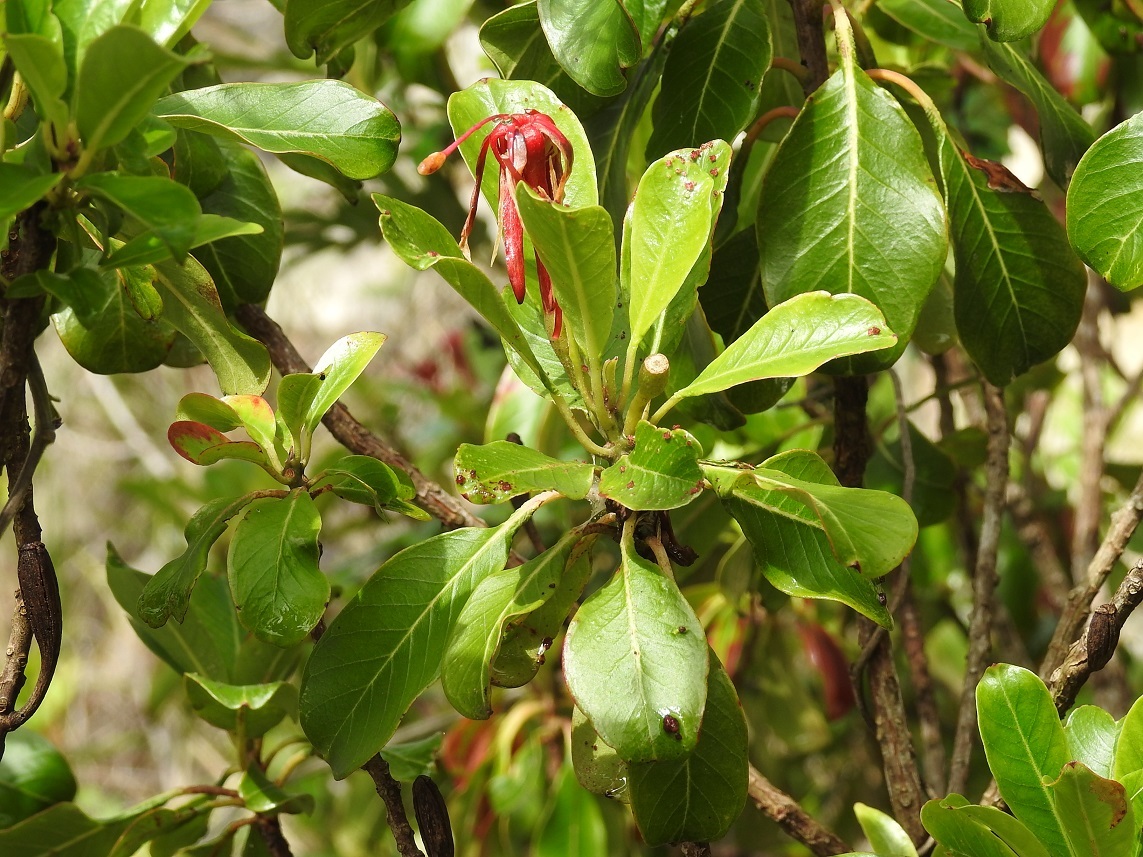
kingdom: Plantae
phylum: Tracheophyta
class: Magnoliopsida
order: Myrtales
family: Onagraceae
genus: Hauya
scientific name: Hauya elegans
